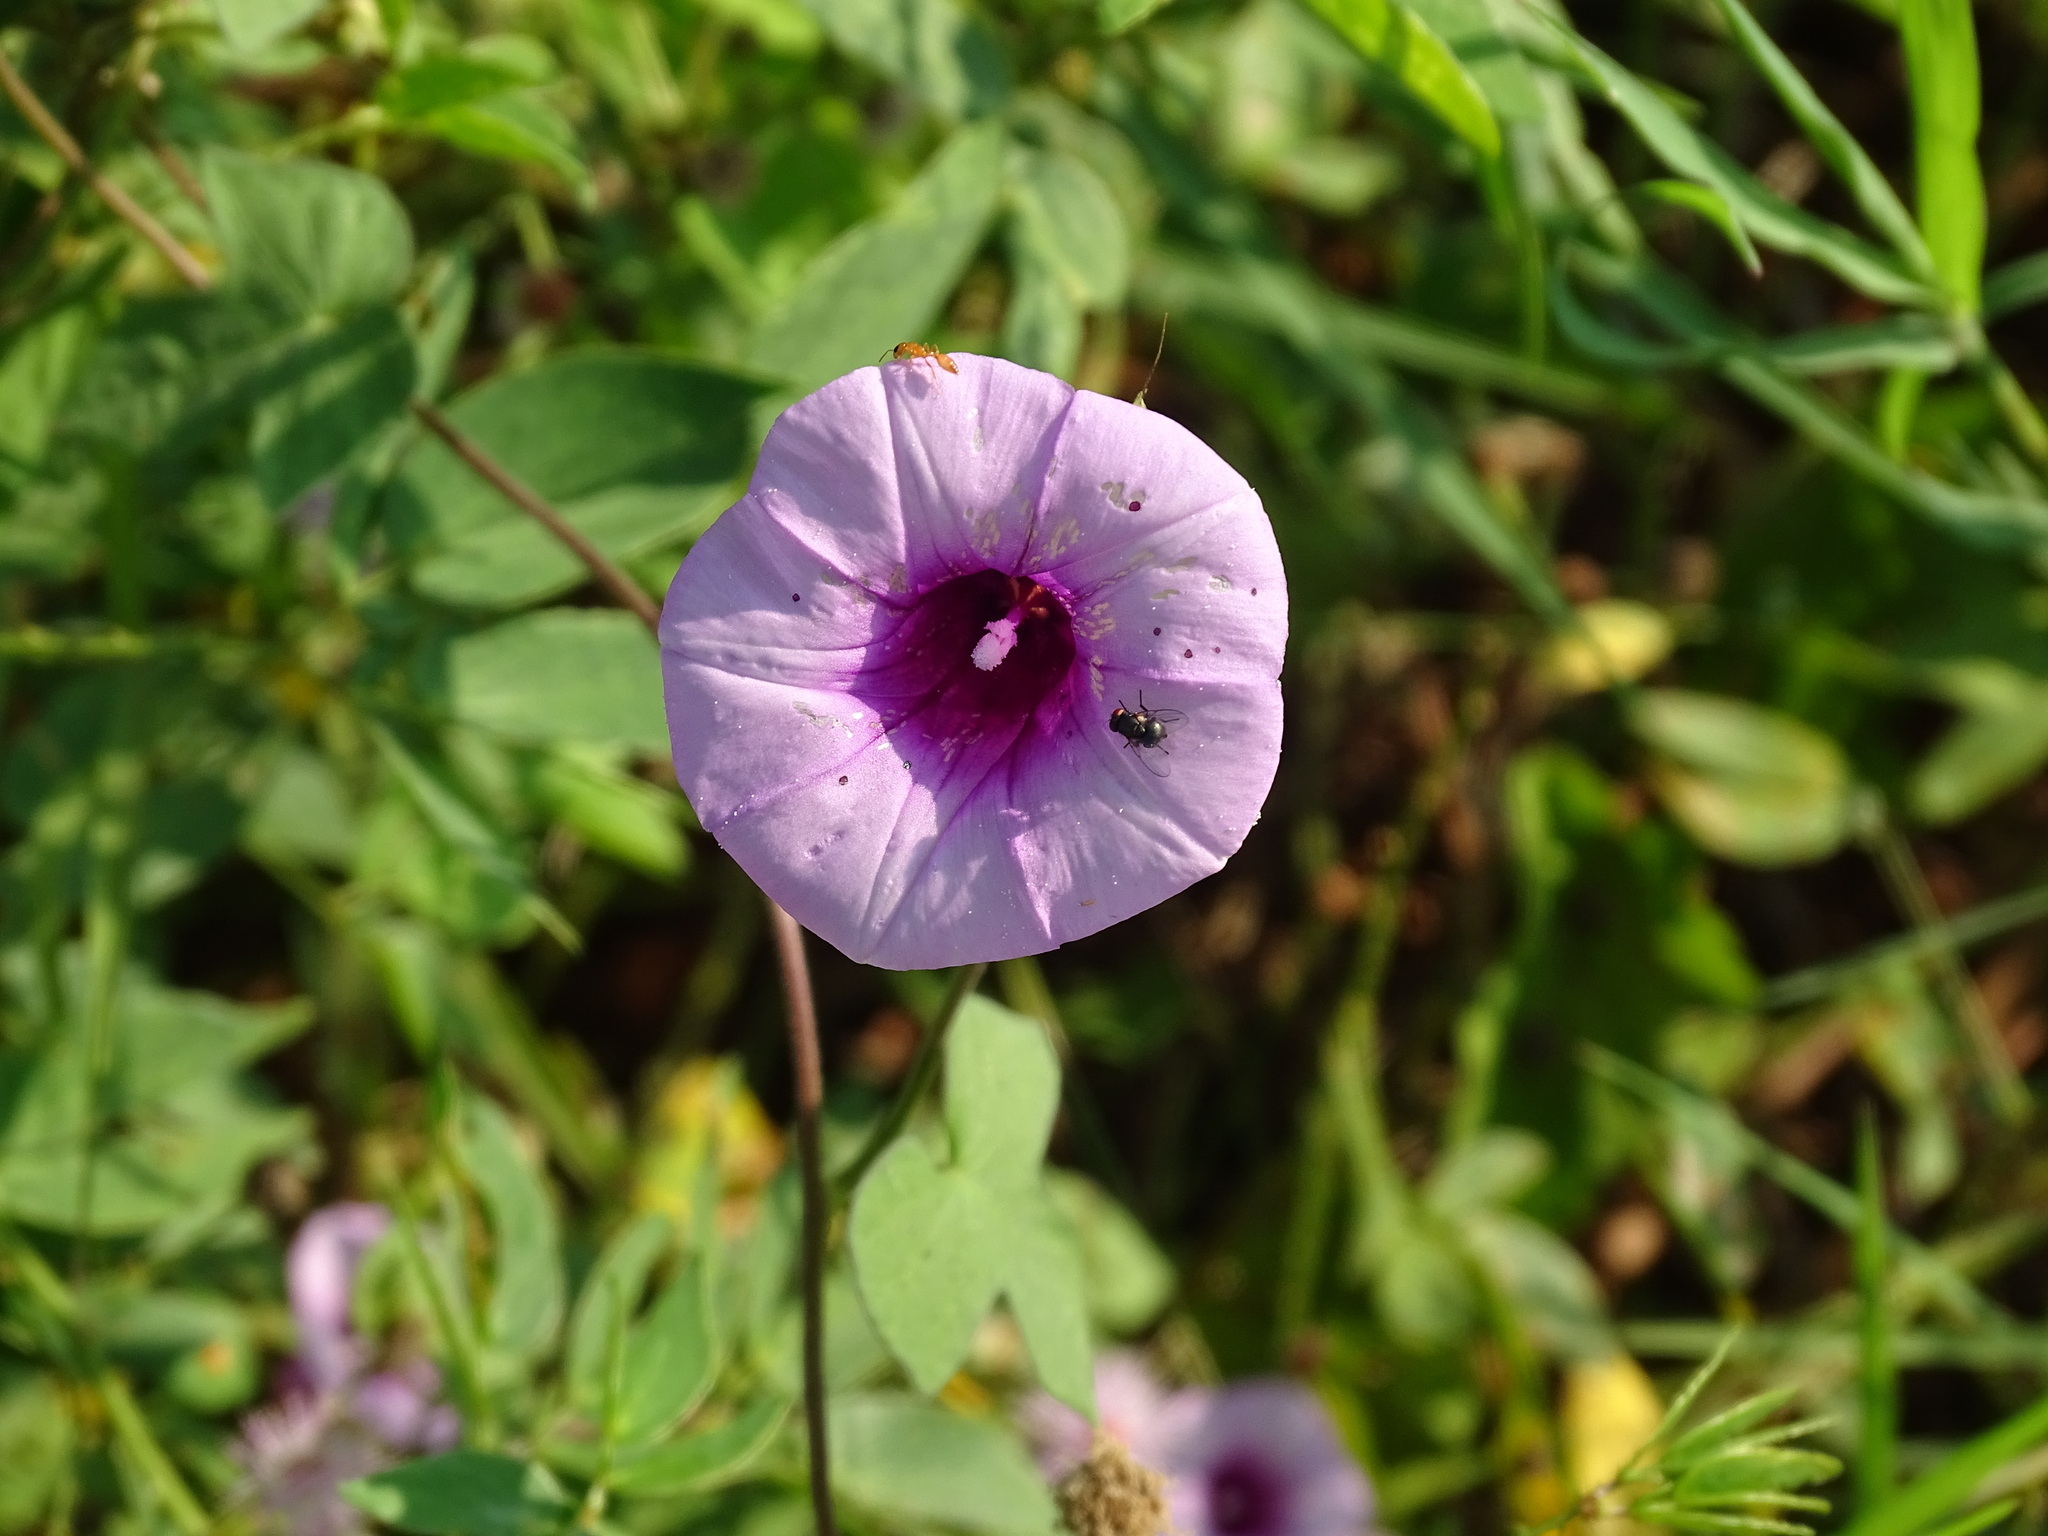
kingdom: Plantae
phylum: Tracheophyta
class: Magnoliopsida
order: Solanales
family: Convolvulaceae
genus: Ipomoea
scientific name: Ipomoea trifida
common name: Cotton morningglory
